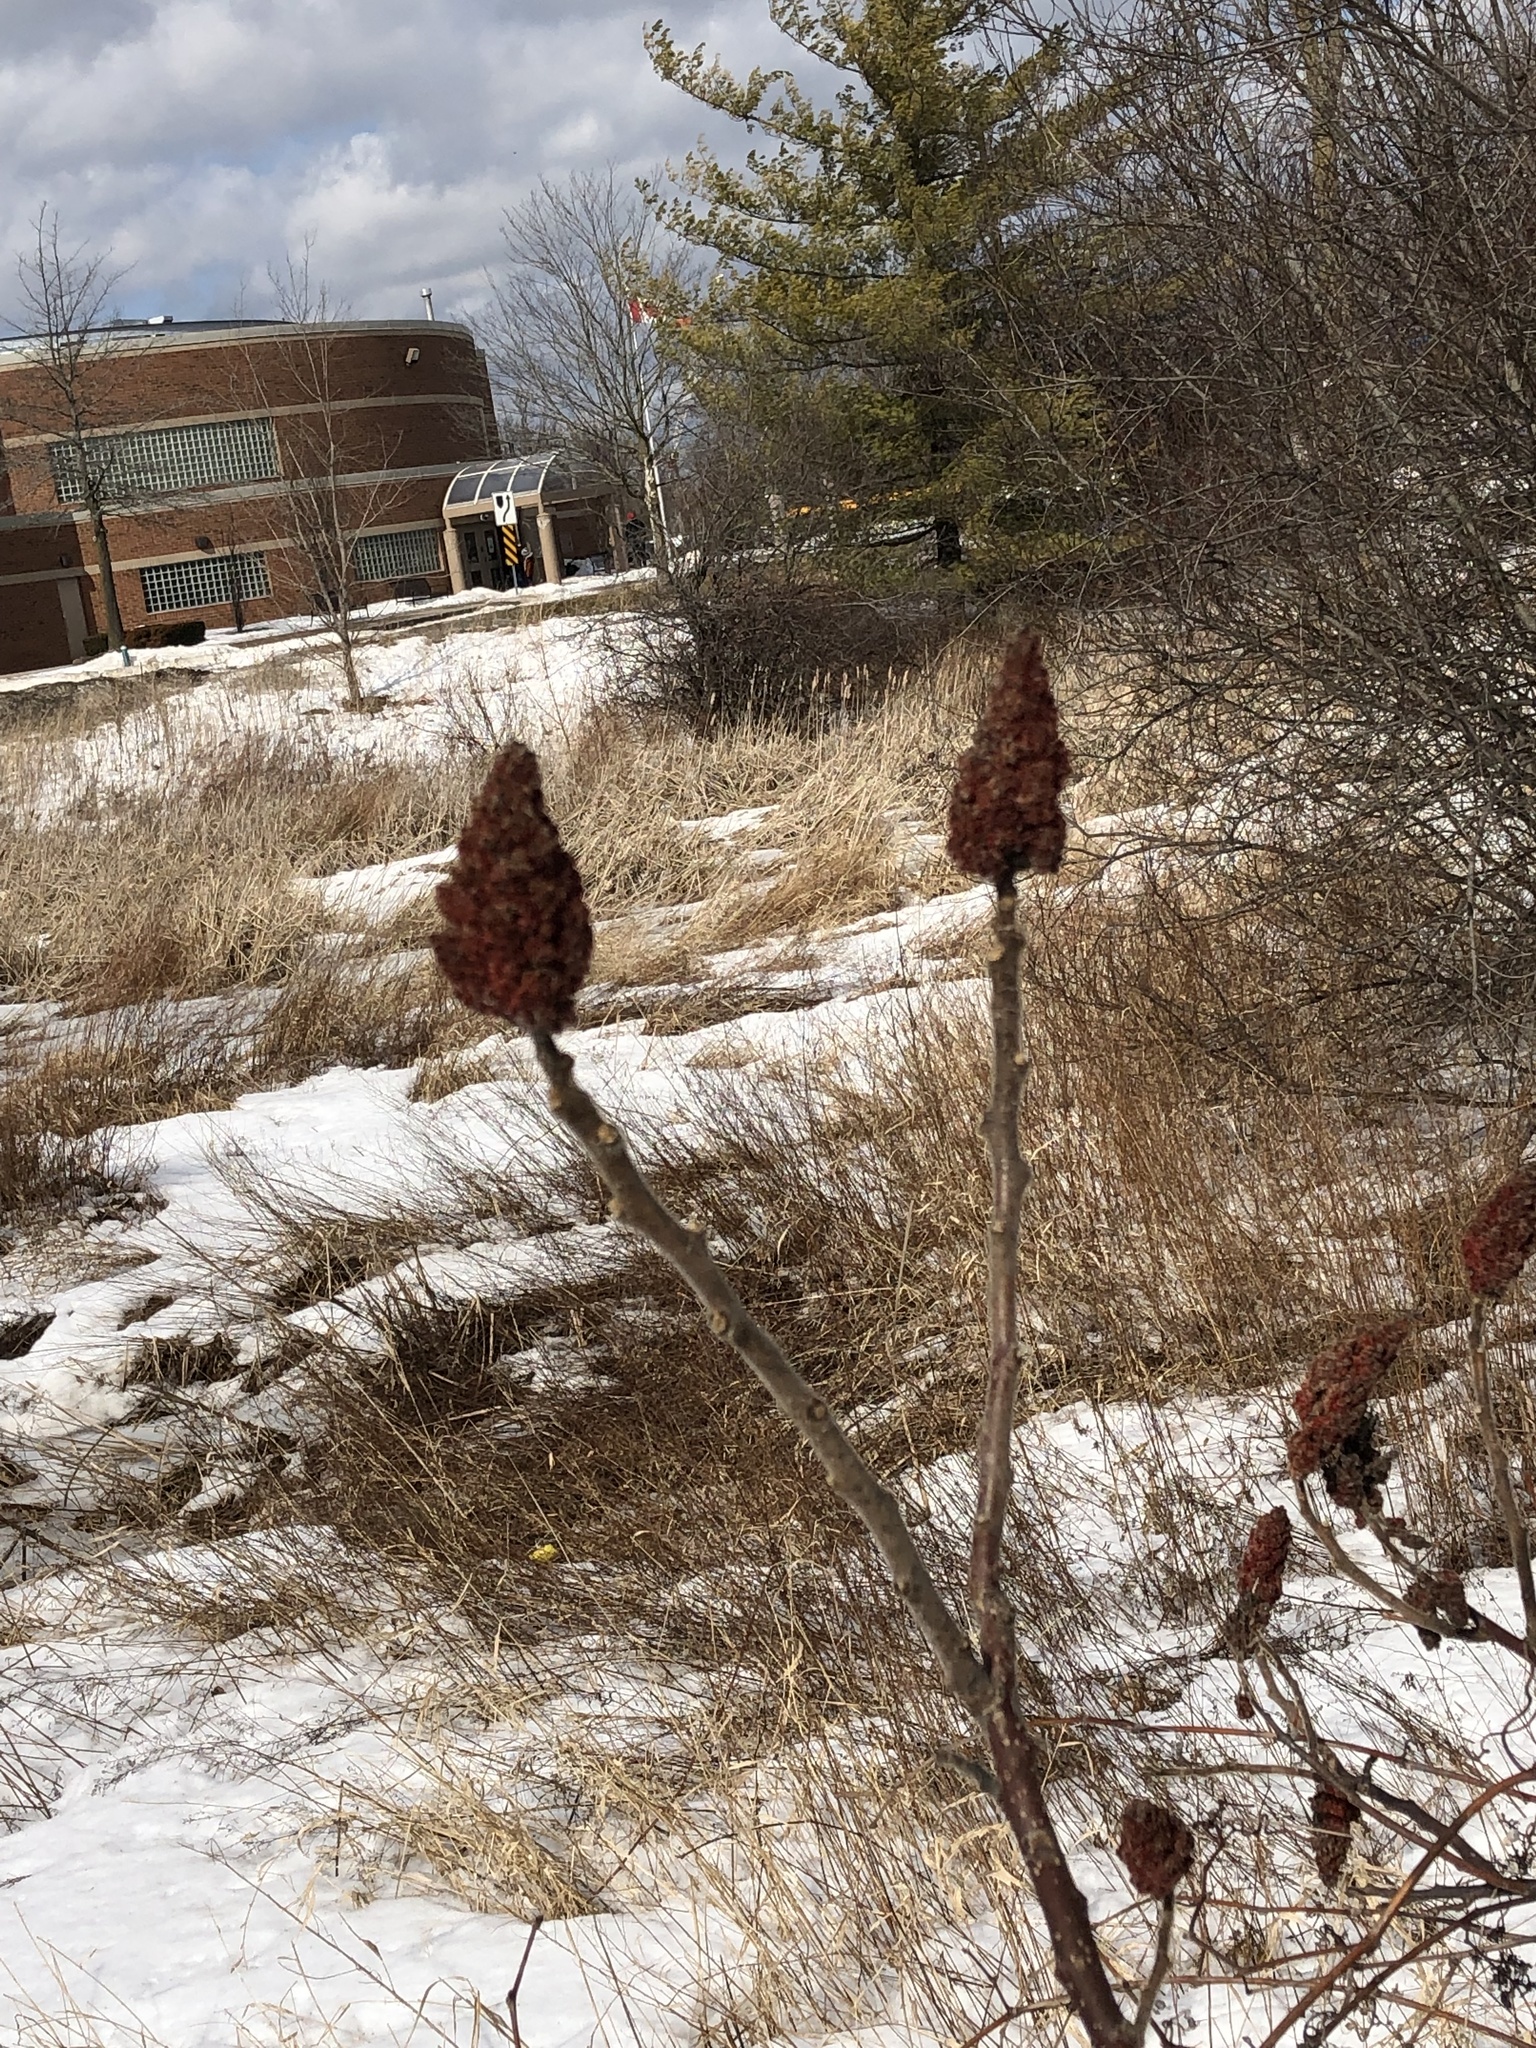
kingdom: Plantae
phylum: Tracheophyta
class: Magnoliopsida
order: Sapindales
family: Anacardiaceae
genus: Rhus
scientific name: Rhus typhina
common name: Staghorn sumac
